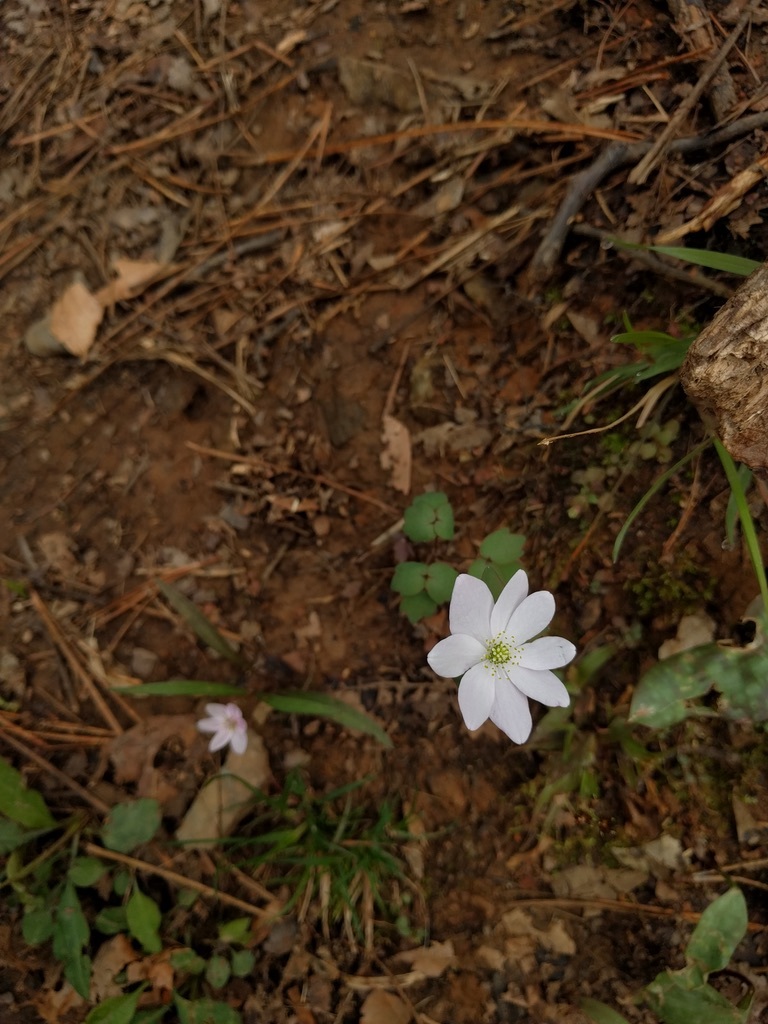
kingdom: Plantae
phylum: Tracheophyta
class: Magnoliopsida
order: Ranunculales
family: Ranunculaceae
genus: Thalictrum
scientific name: Thalictrum thalictroides
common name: Rue-anemone
